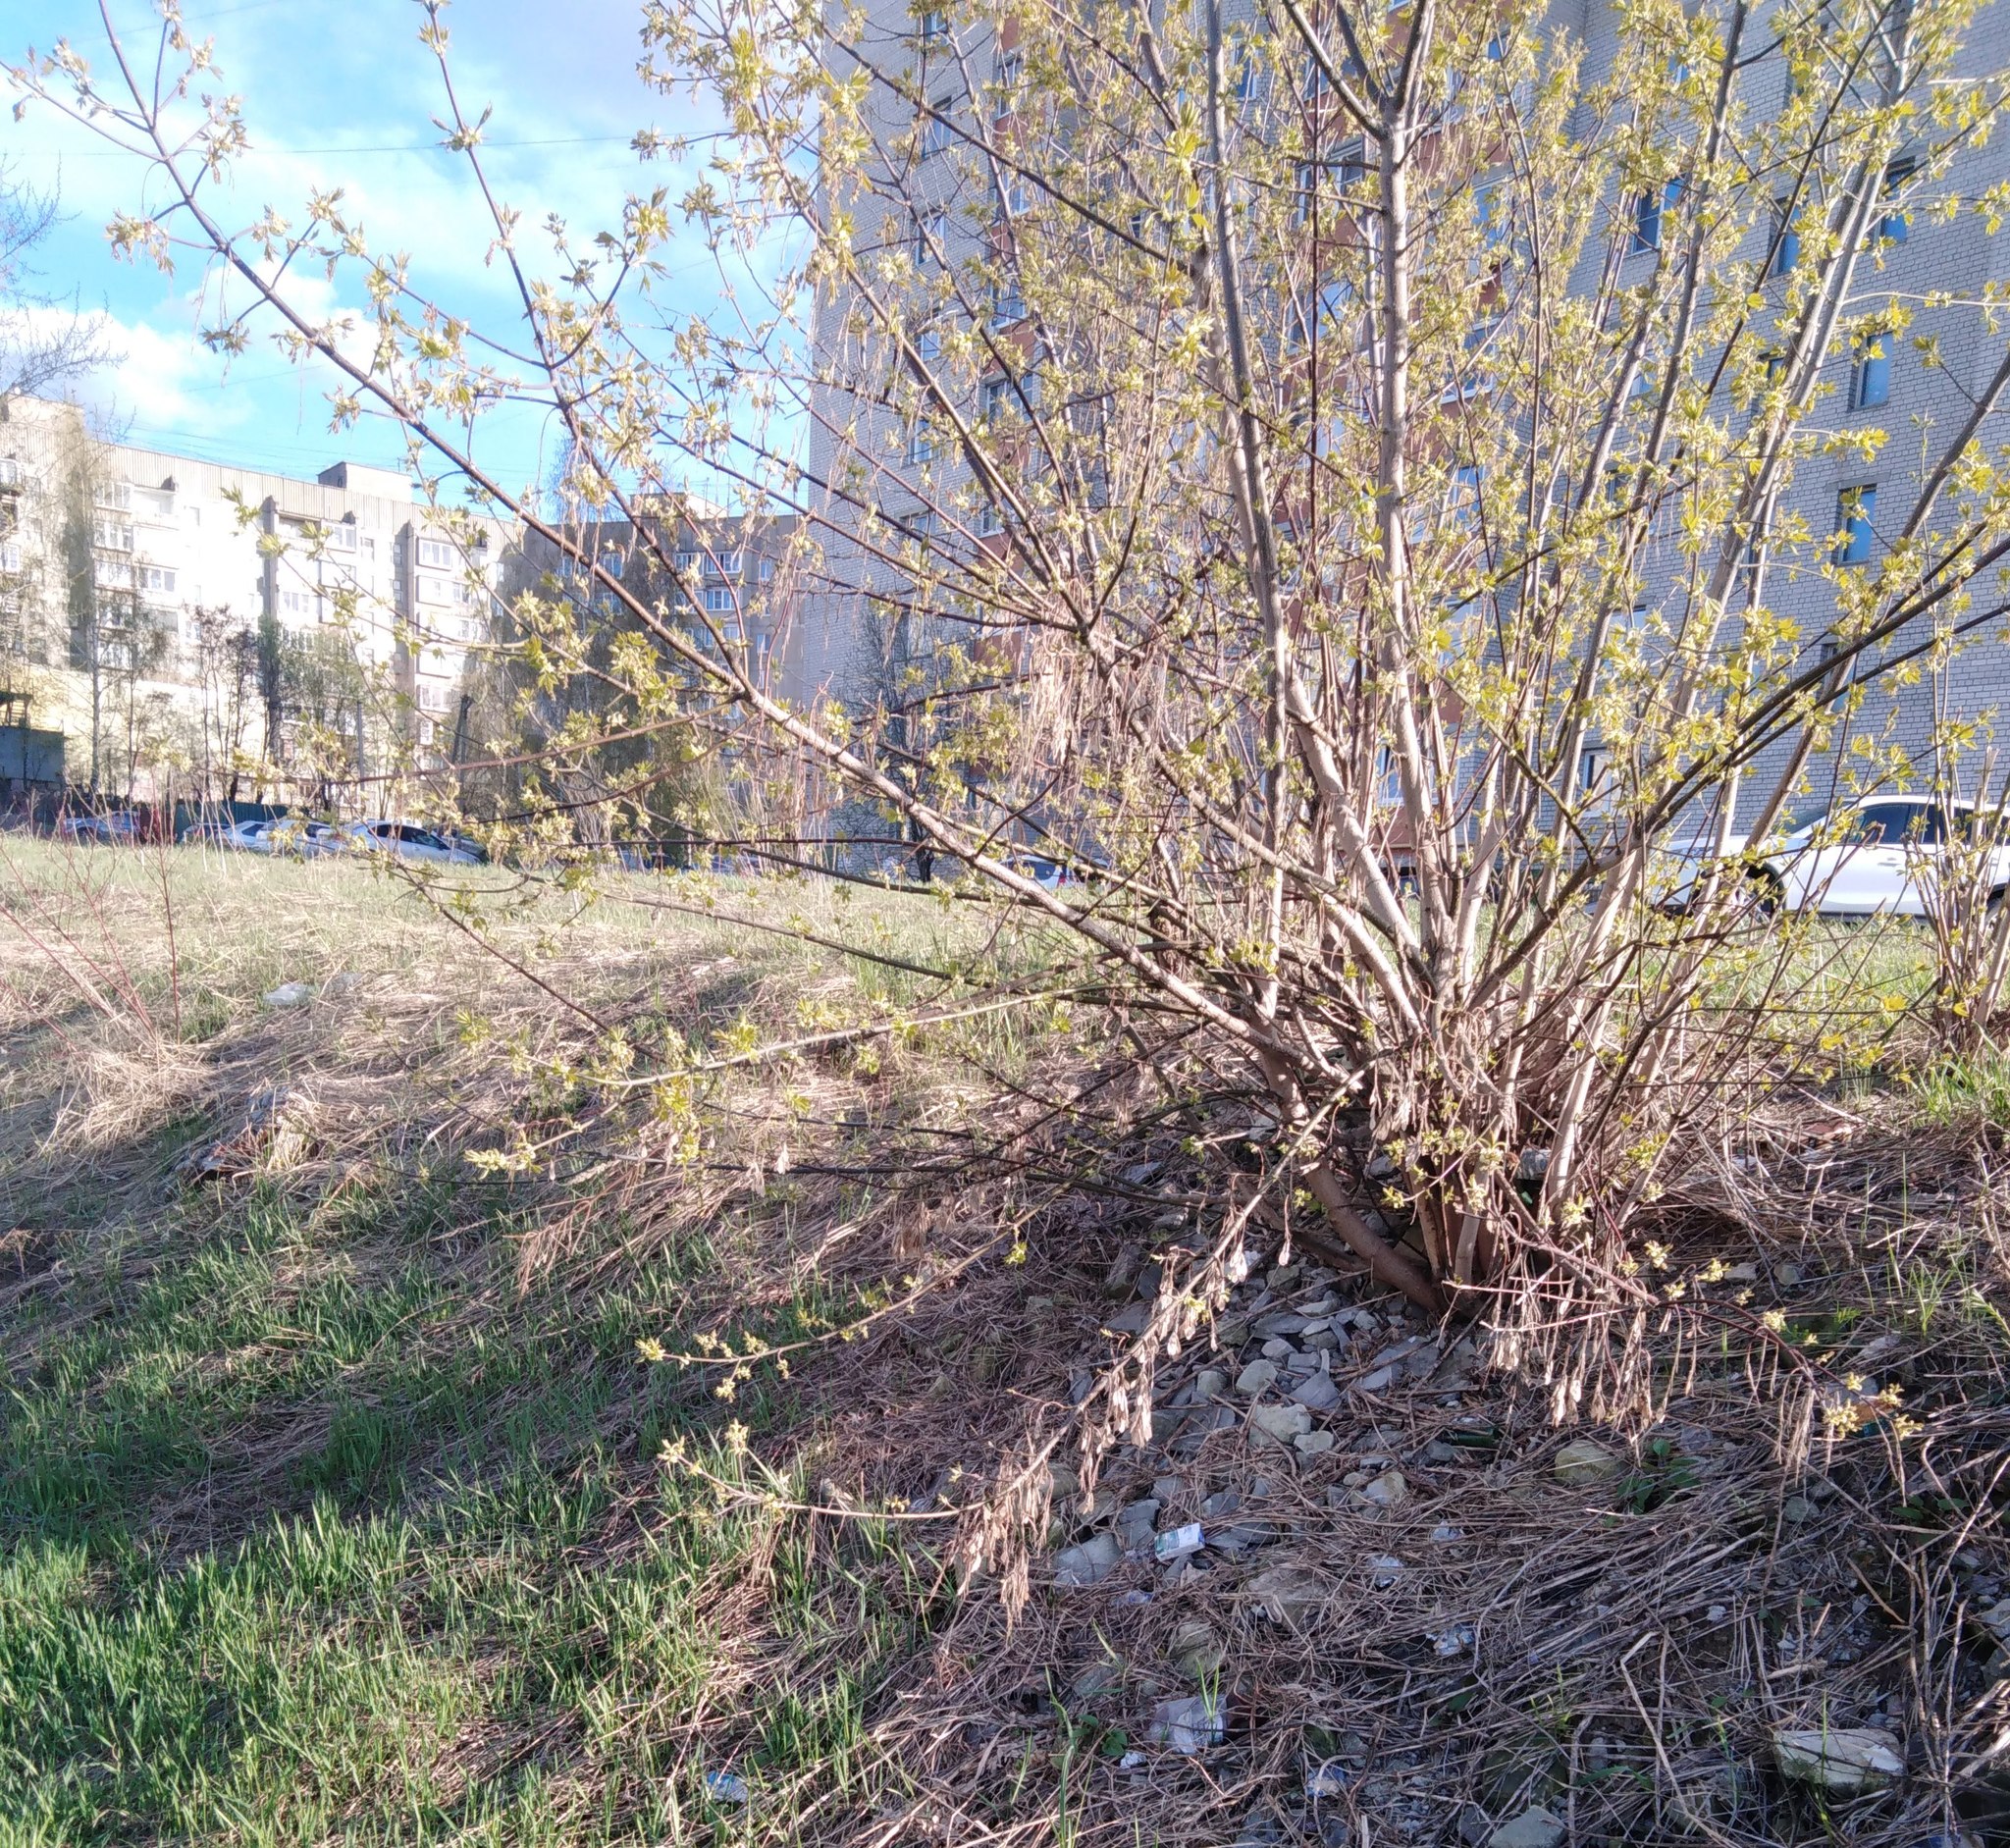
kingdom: Plantae
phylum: Tracheophyta
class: Magnoliopsida
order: Sapindales
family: Sapindaceae
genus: Acer
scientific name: Acer negundo
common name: Ashleaf maple
